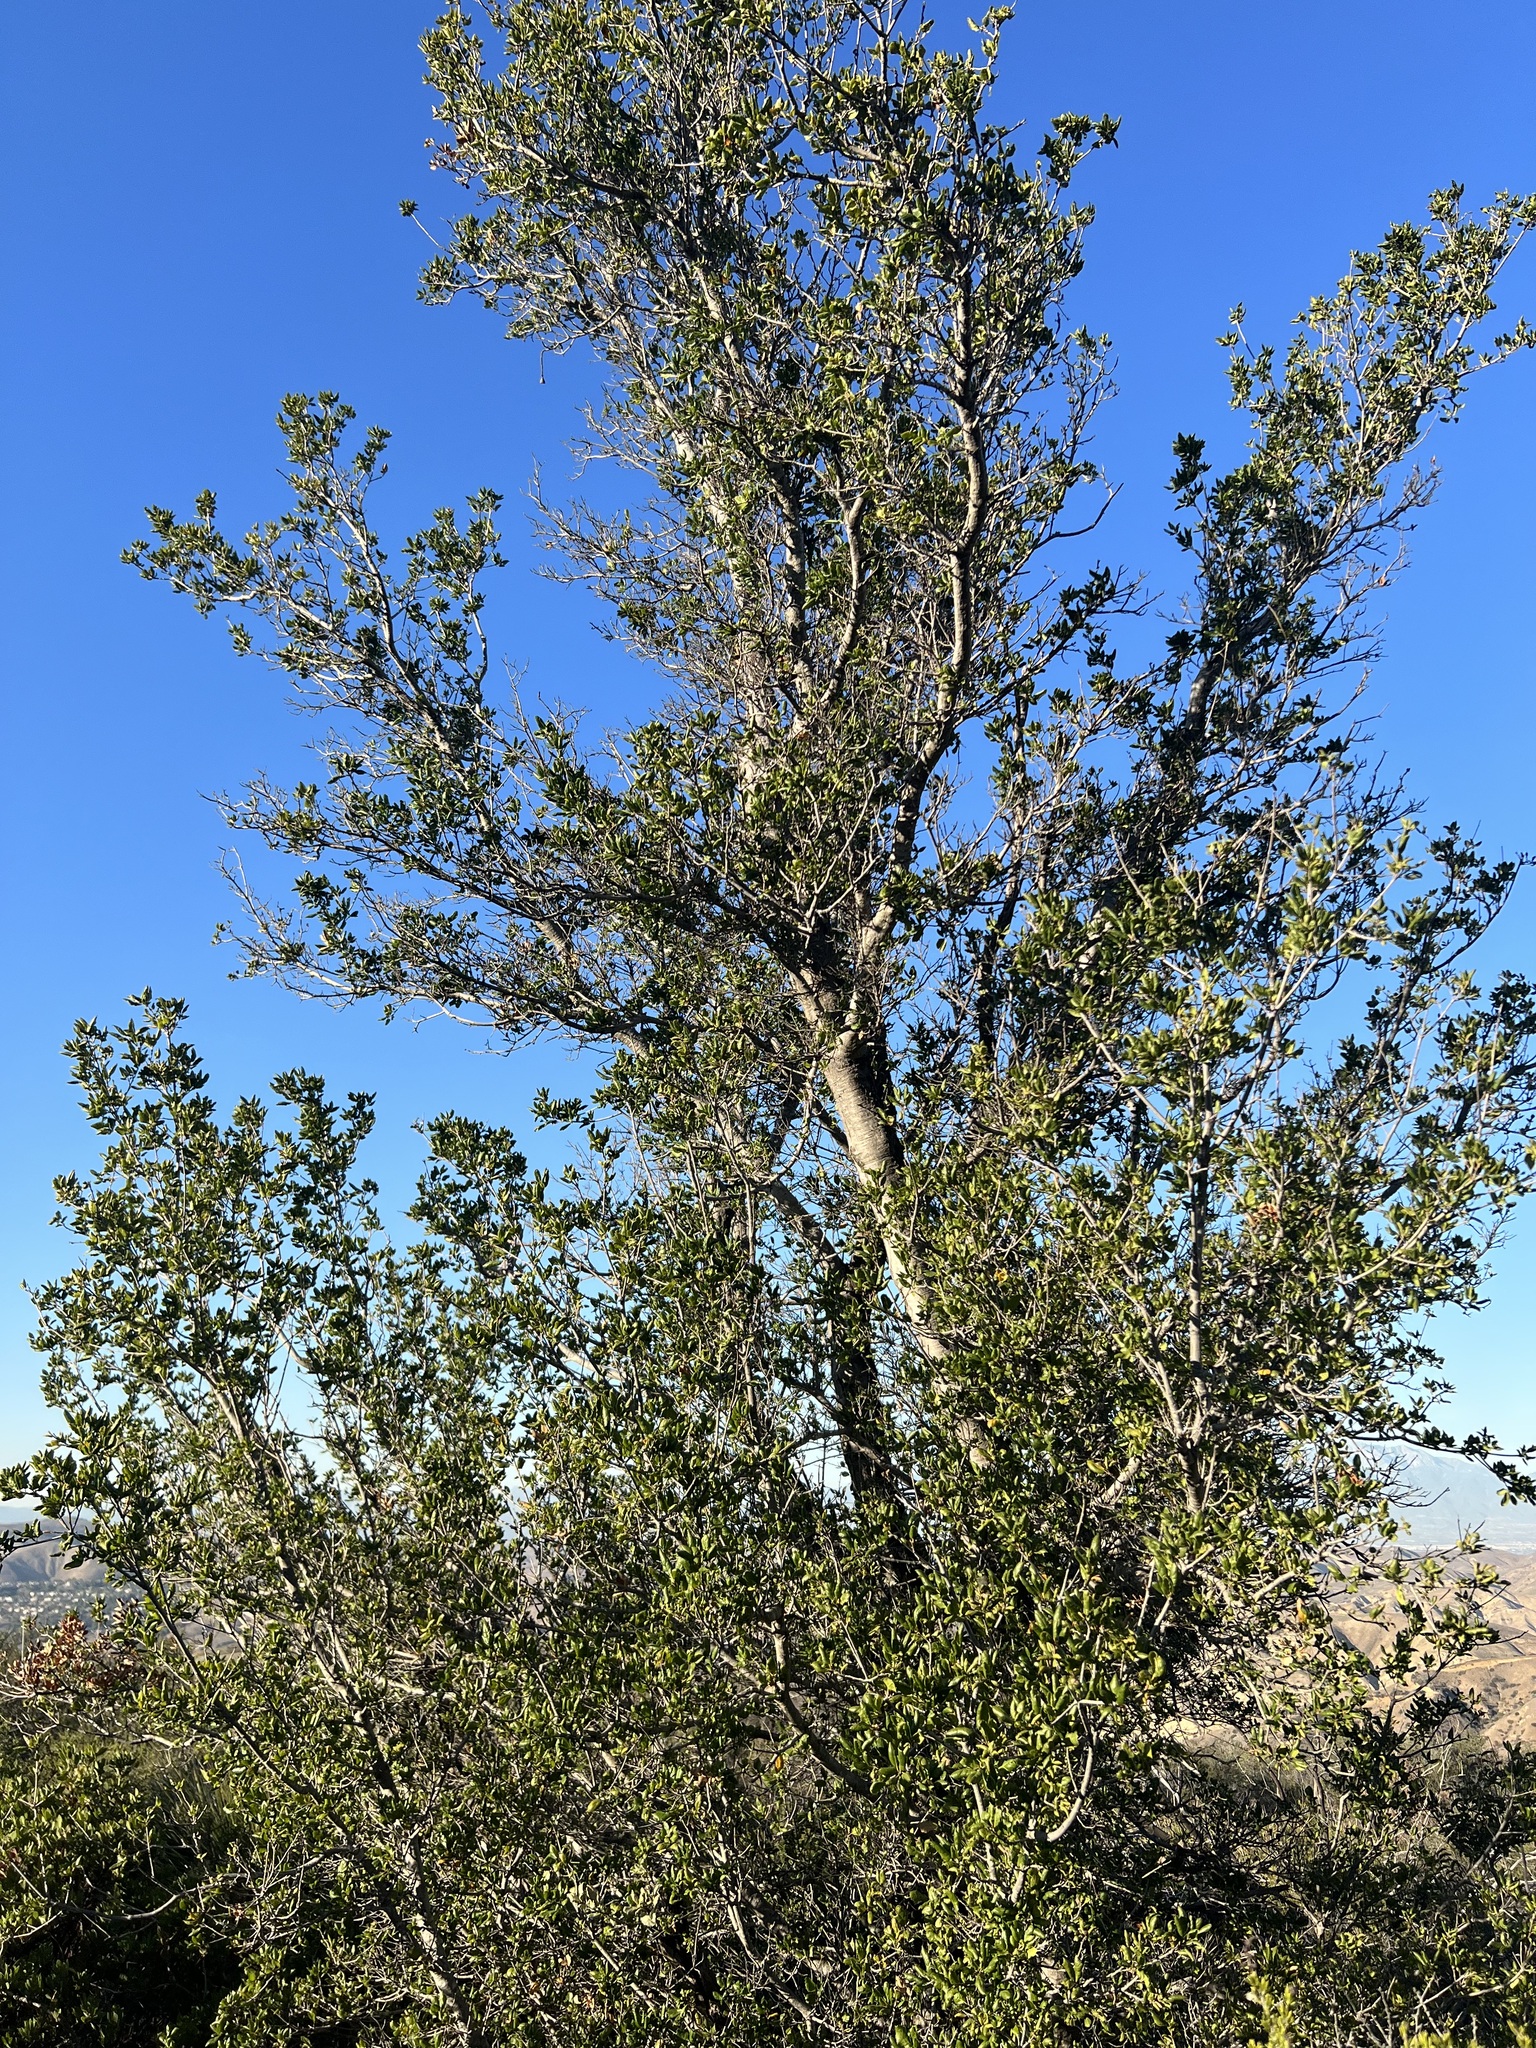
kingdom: Plantae
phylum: Tracheophyta
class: Magnoliopsida
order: Fagales
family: Fagaceae
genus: Quercus
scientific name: Quercus agrifolia
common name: California live oak
